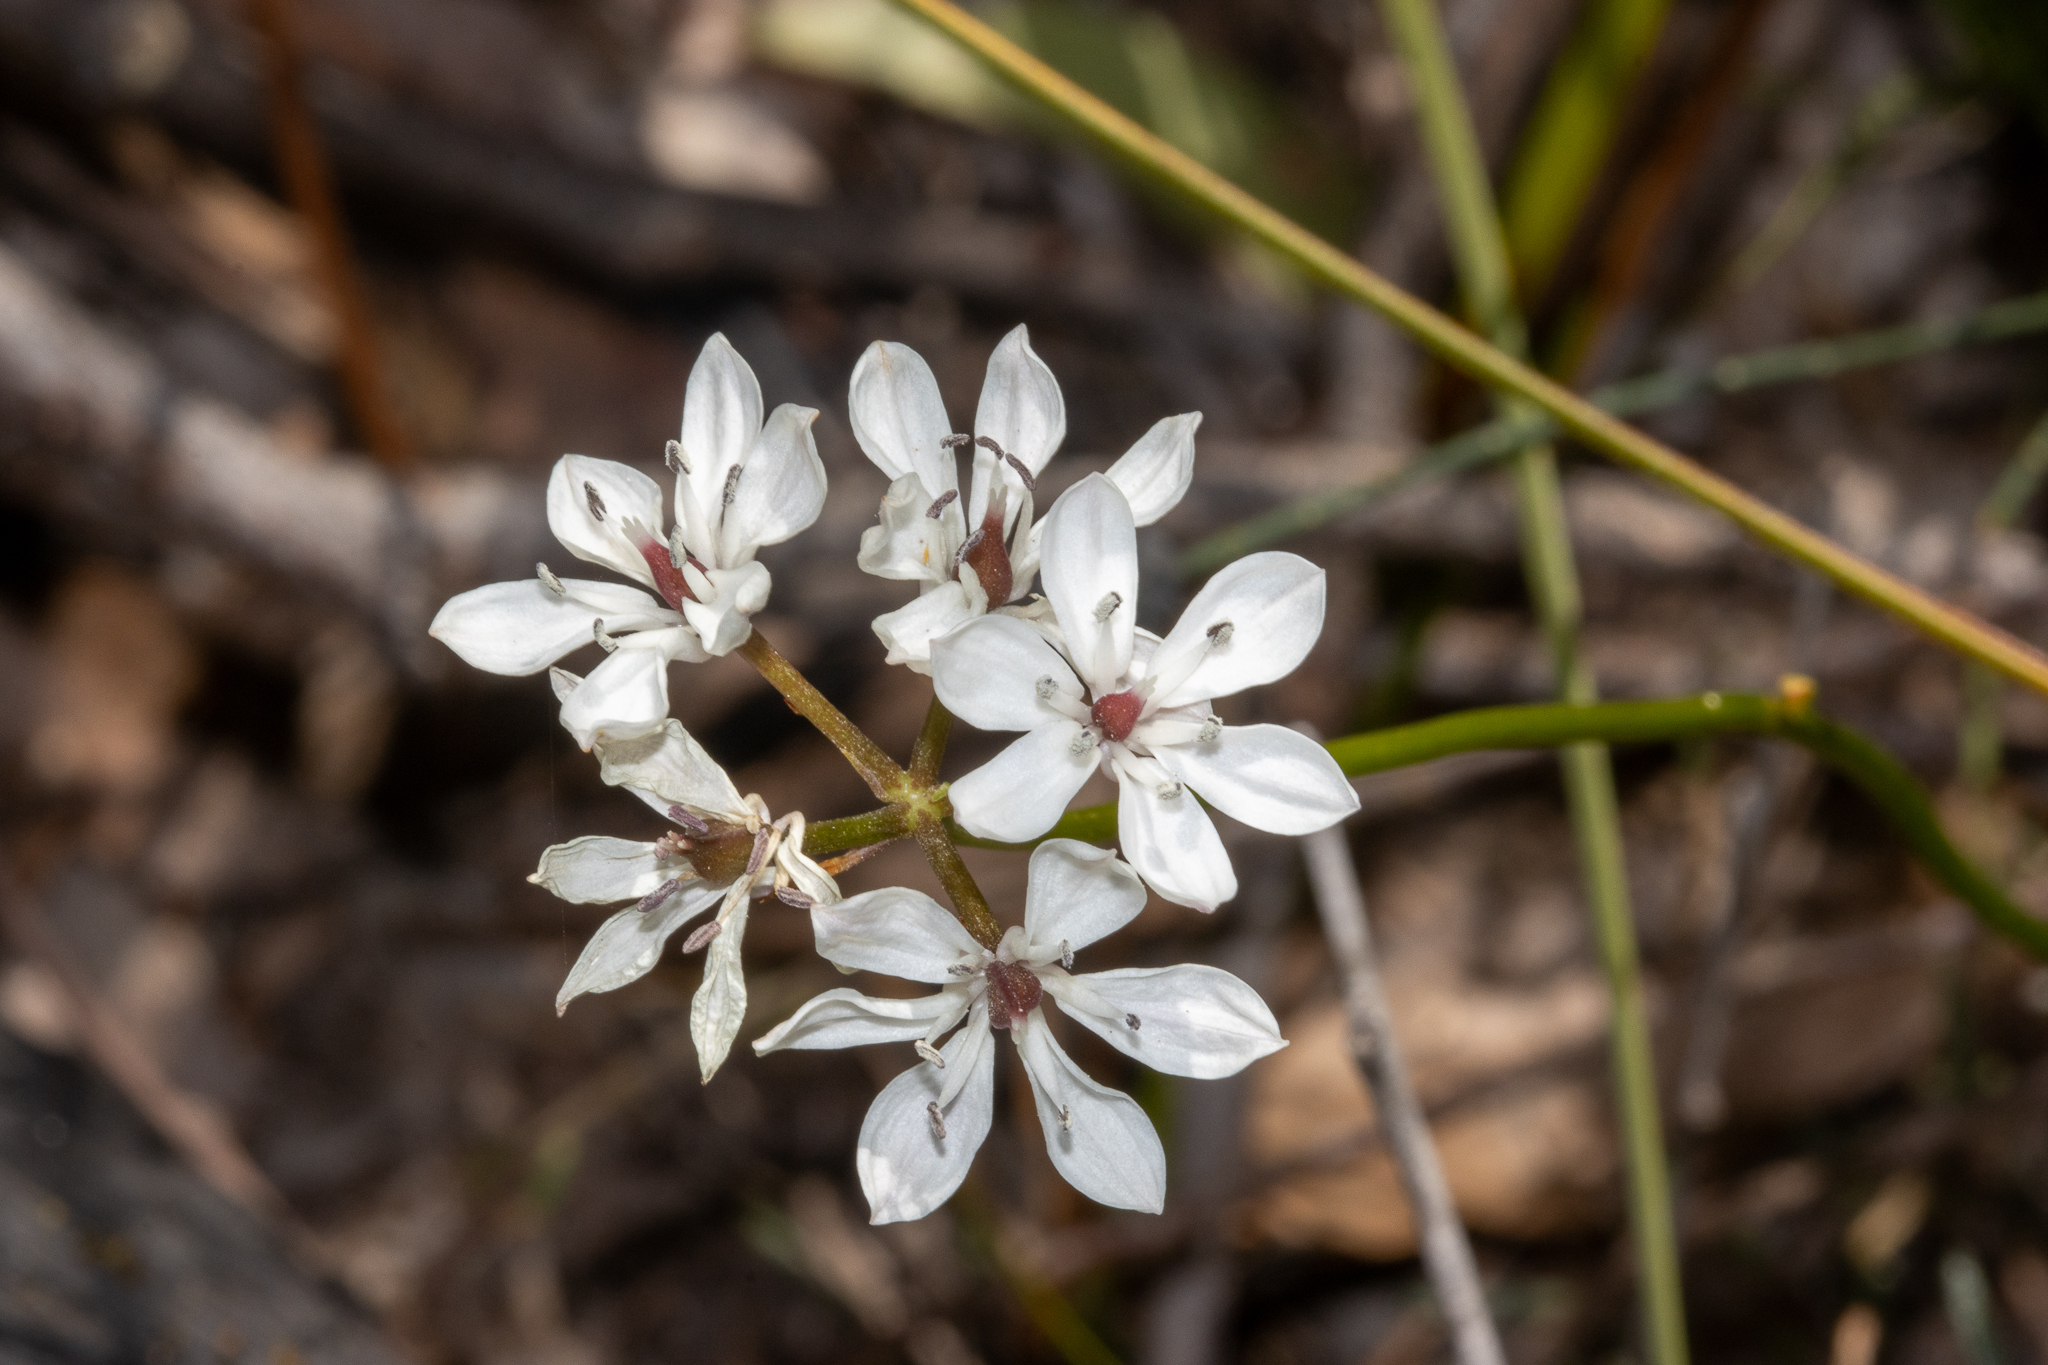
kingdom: Plantae
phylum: Tracheophyta
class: Liliopsida
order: Liliales
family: Colchicaceae
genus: Burchardia
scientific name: Burchardia umbellata
